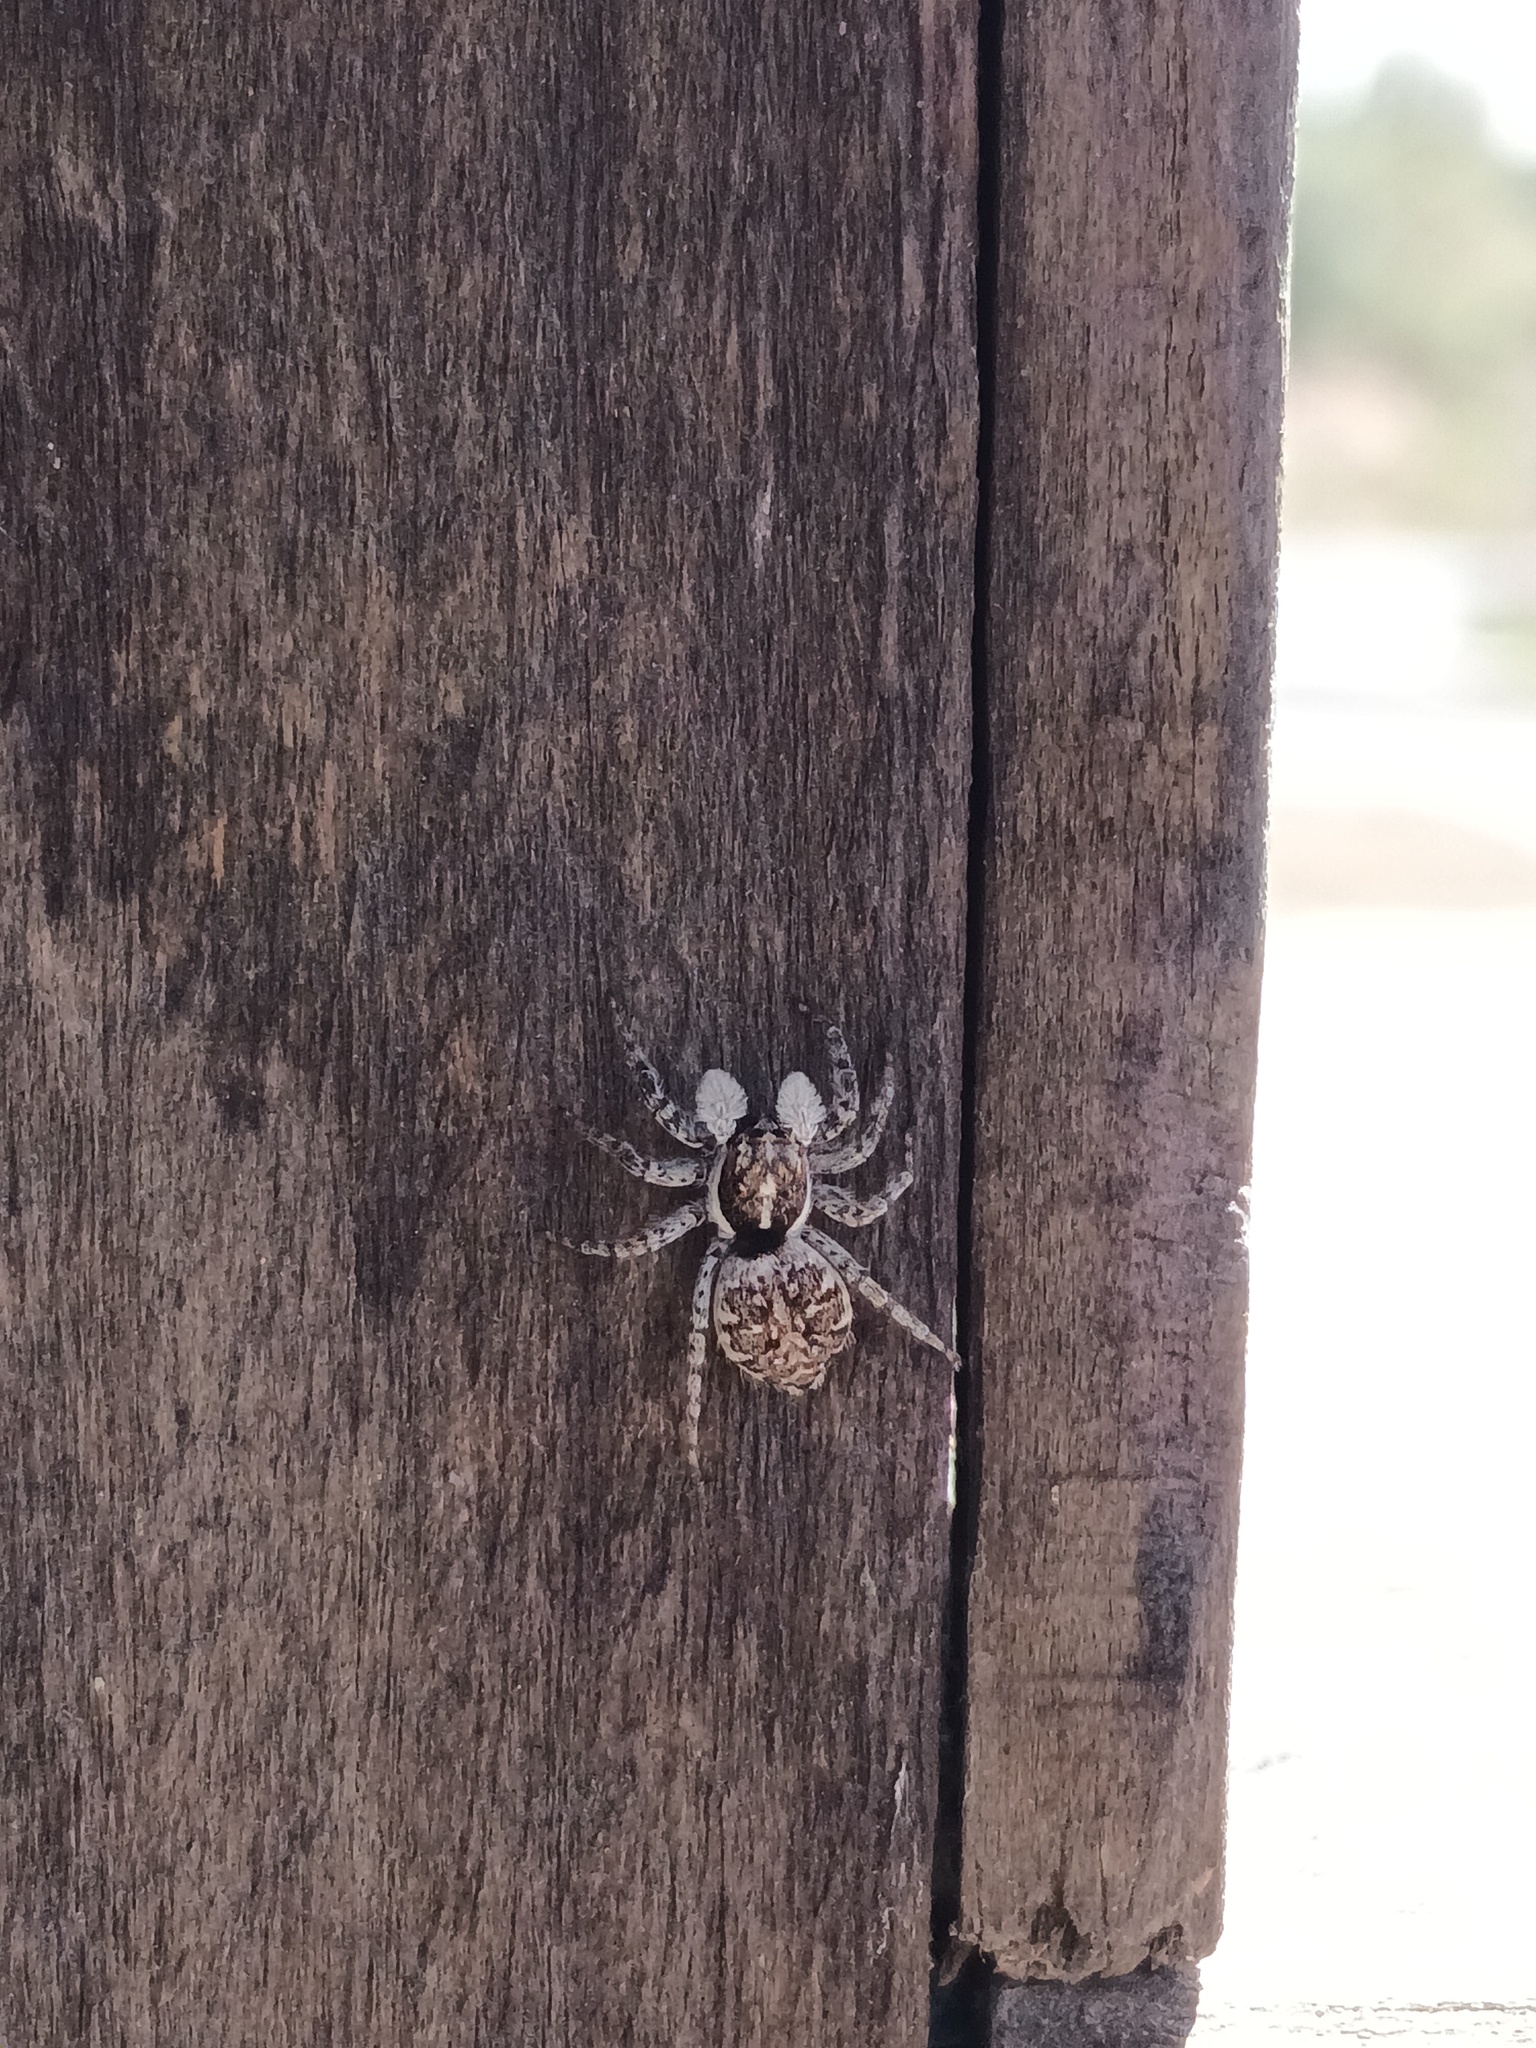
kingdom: Animalia
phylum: Arthropoda
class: Arachnida
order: Araneae
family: Salticidae
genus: Menemerus
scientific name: Menemerus semilimbatus
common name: Jumping spider
